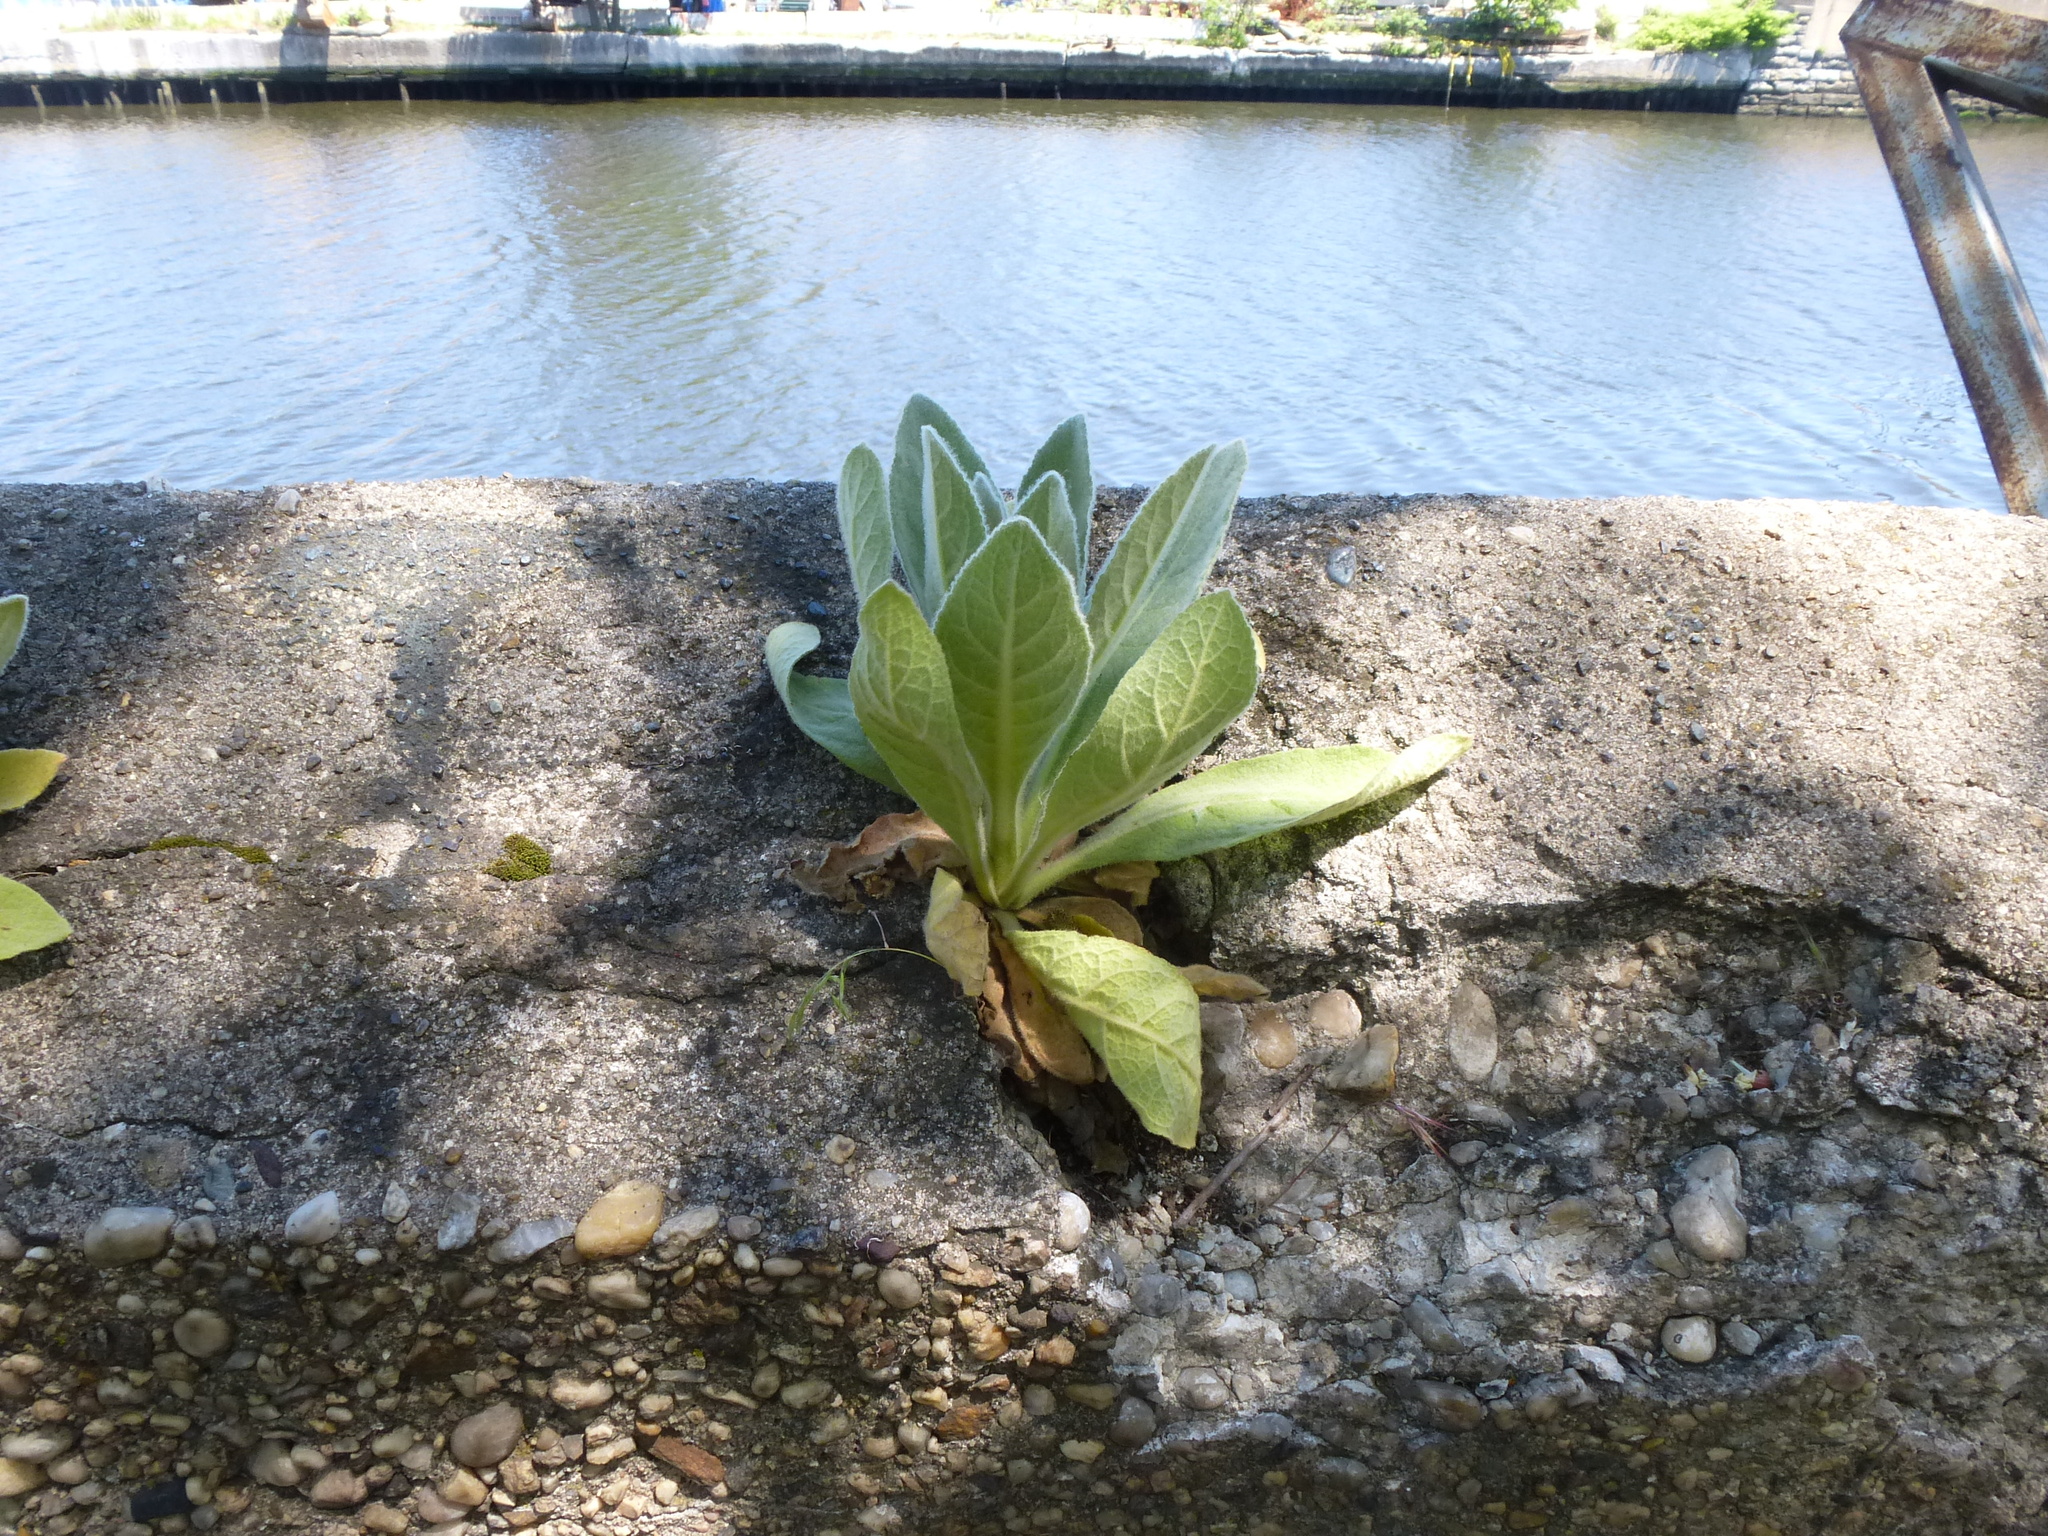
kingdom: Plantae
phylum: Tracheophyta
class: Magnoliopsida
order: Lamiales
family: Scrophulariaceae
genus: Verbascum
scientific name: Verbascum thapsus
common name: Common mullein
